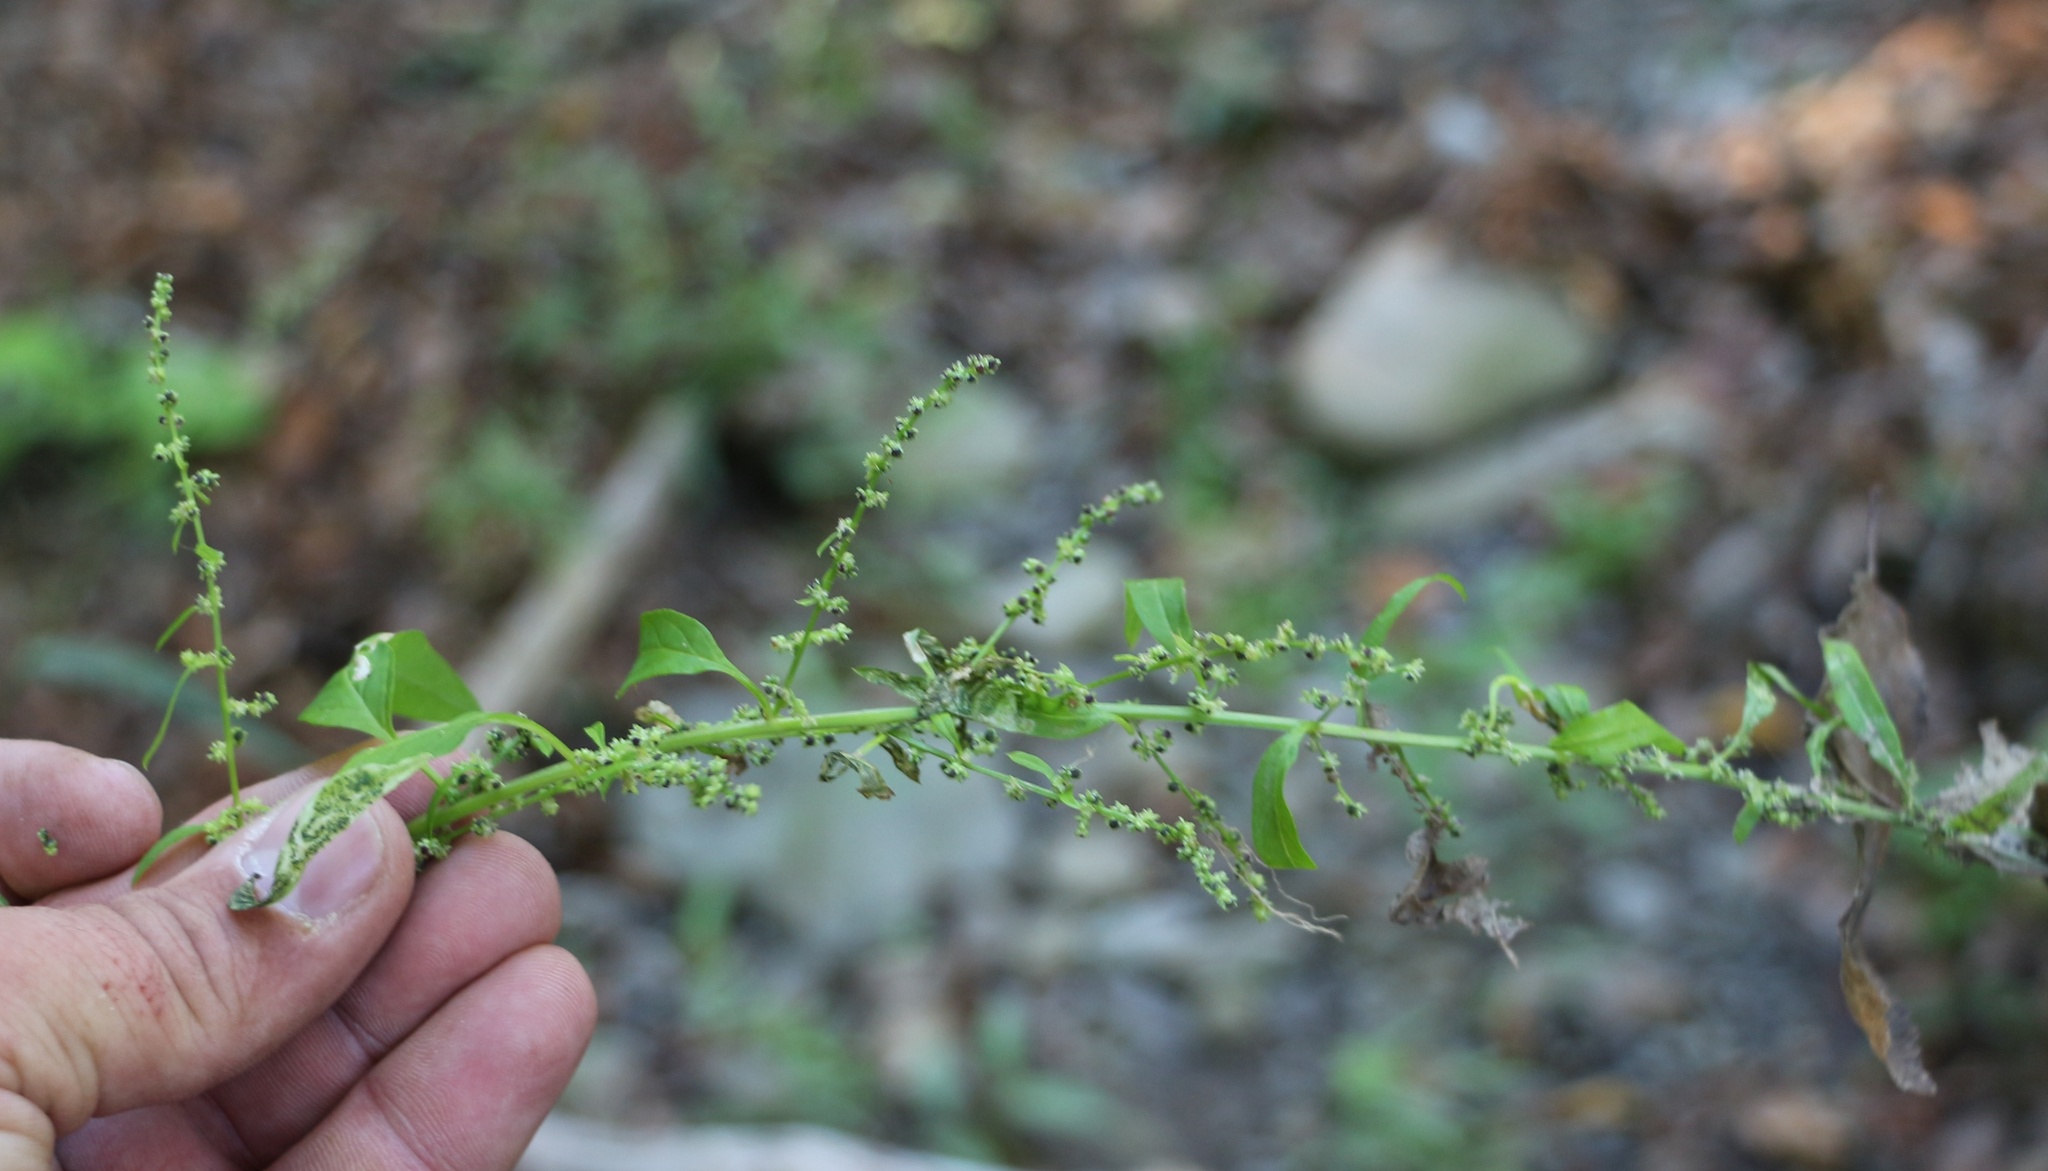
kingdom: Plantae
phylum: Tracheophyta
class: Magnoliopsida
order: Caryophyllales
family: Amaranthaceae
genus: Lipandra
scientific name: Lipandra polysperma
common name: Many-seed goosefoot
